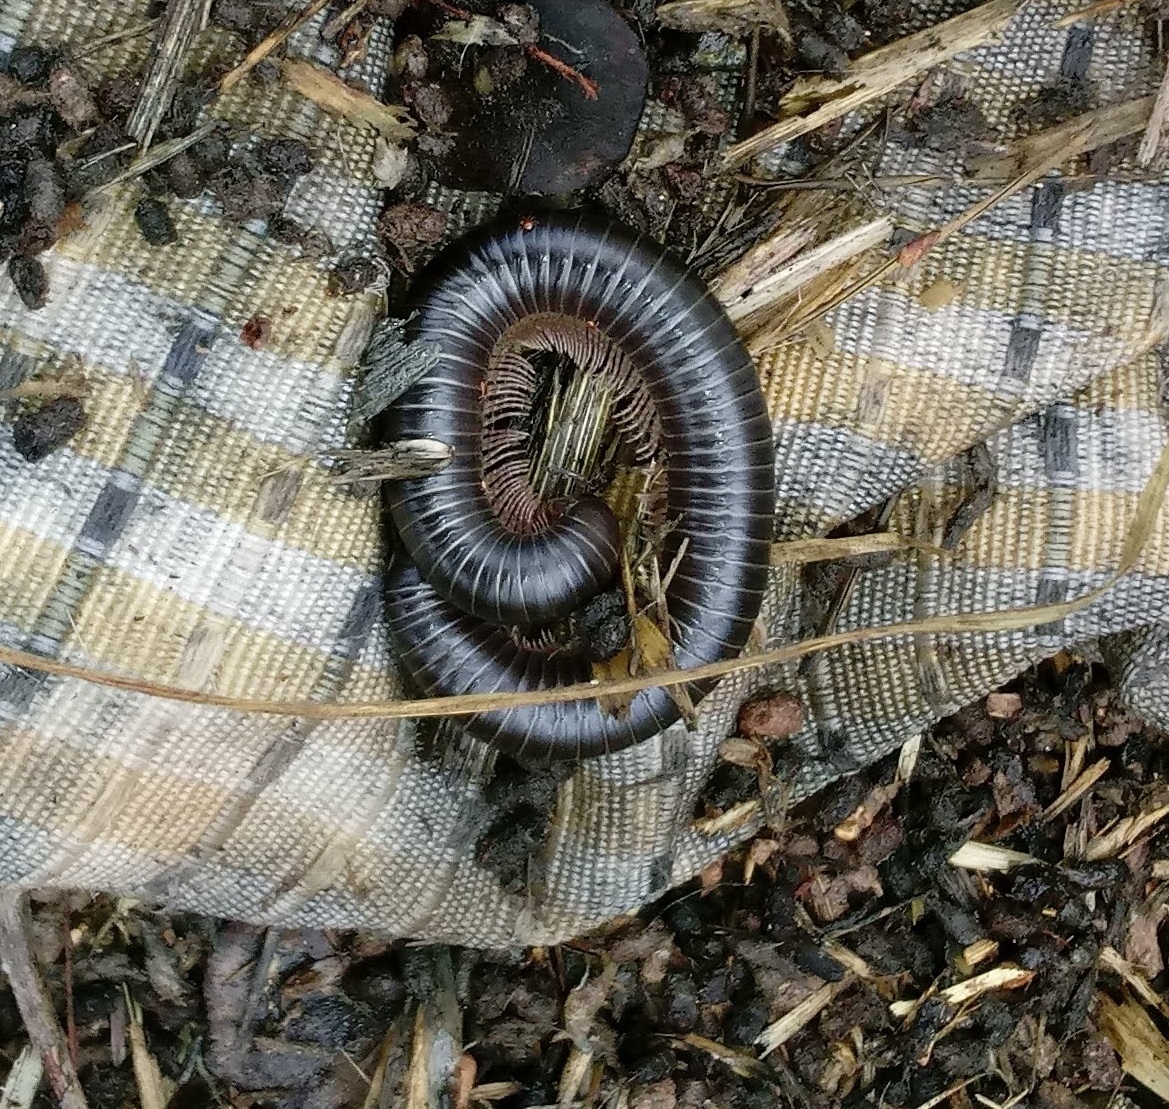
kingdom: Animalia
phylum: Arthropoda
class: Diplopoda
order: Spirostreptida
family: Spirostreptidae
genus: Archispirostreptus
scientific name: Archispirostreptus syriacus
